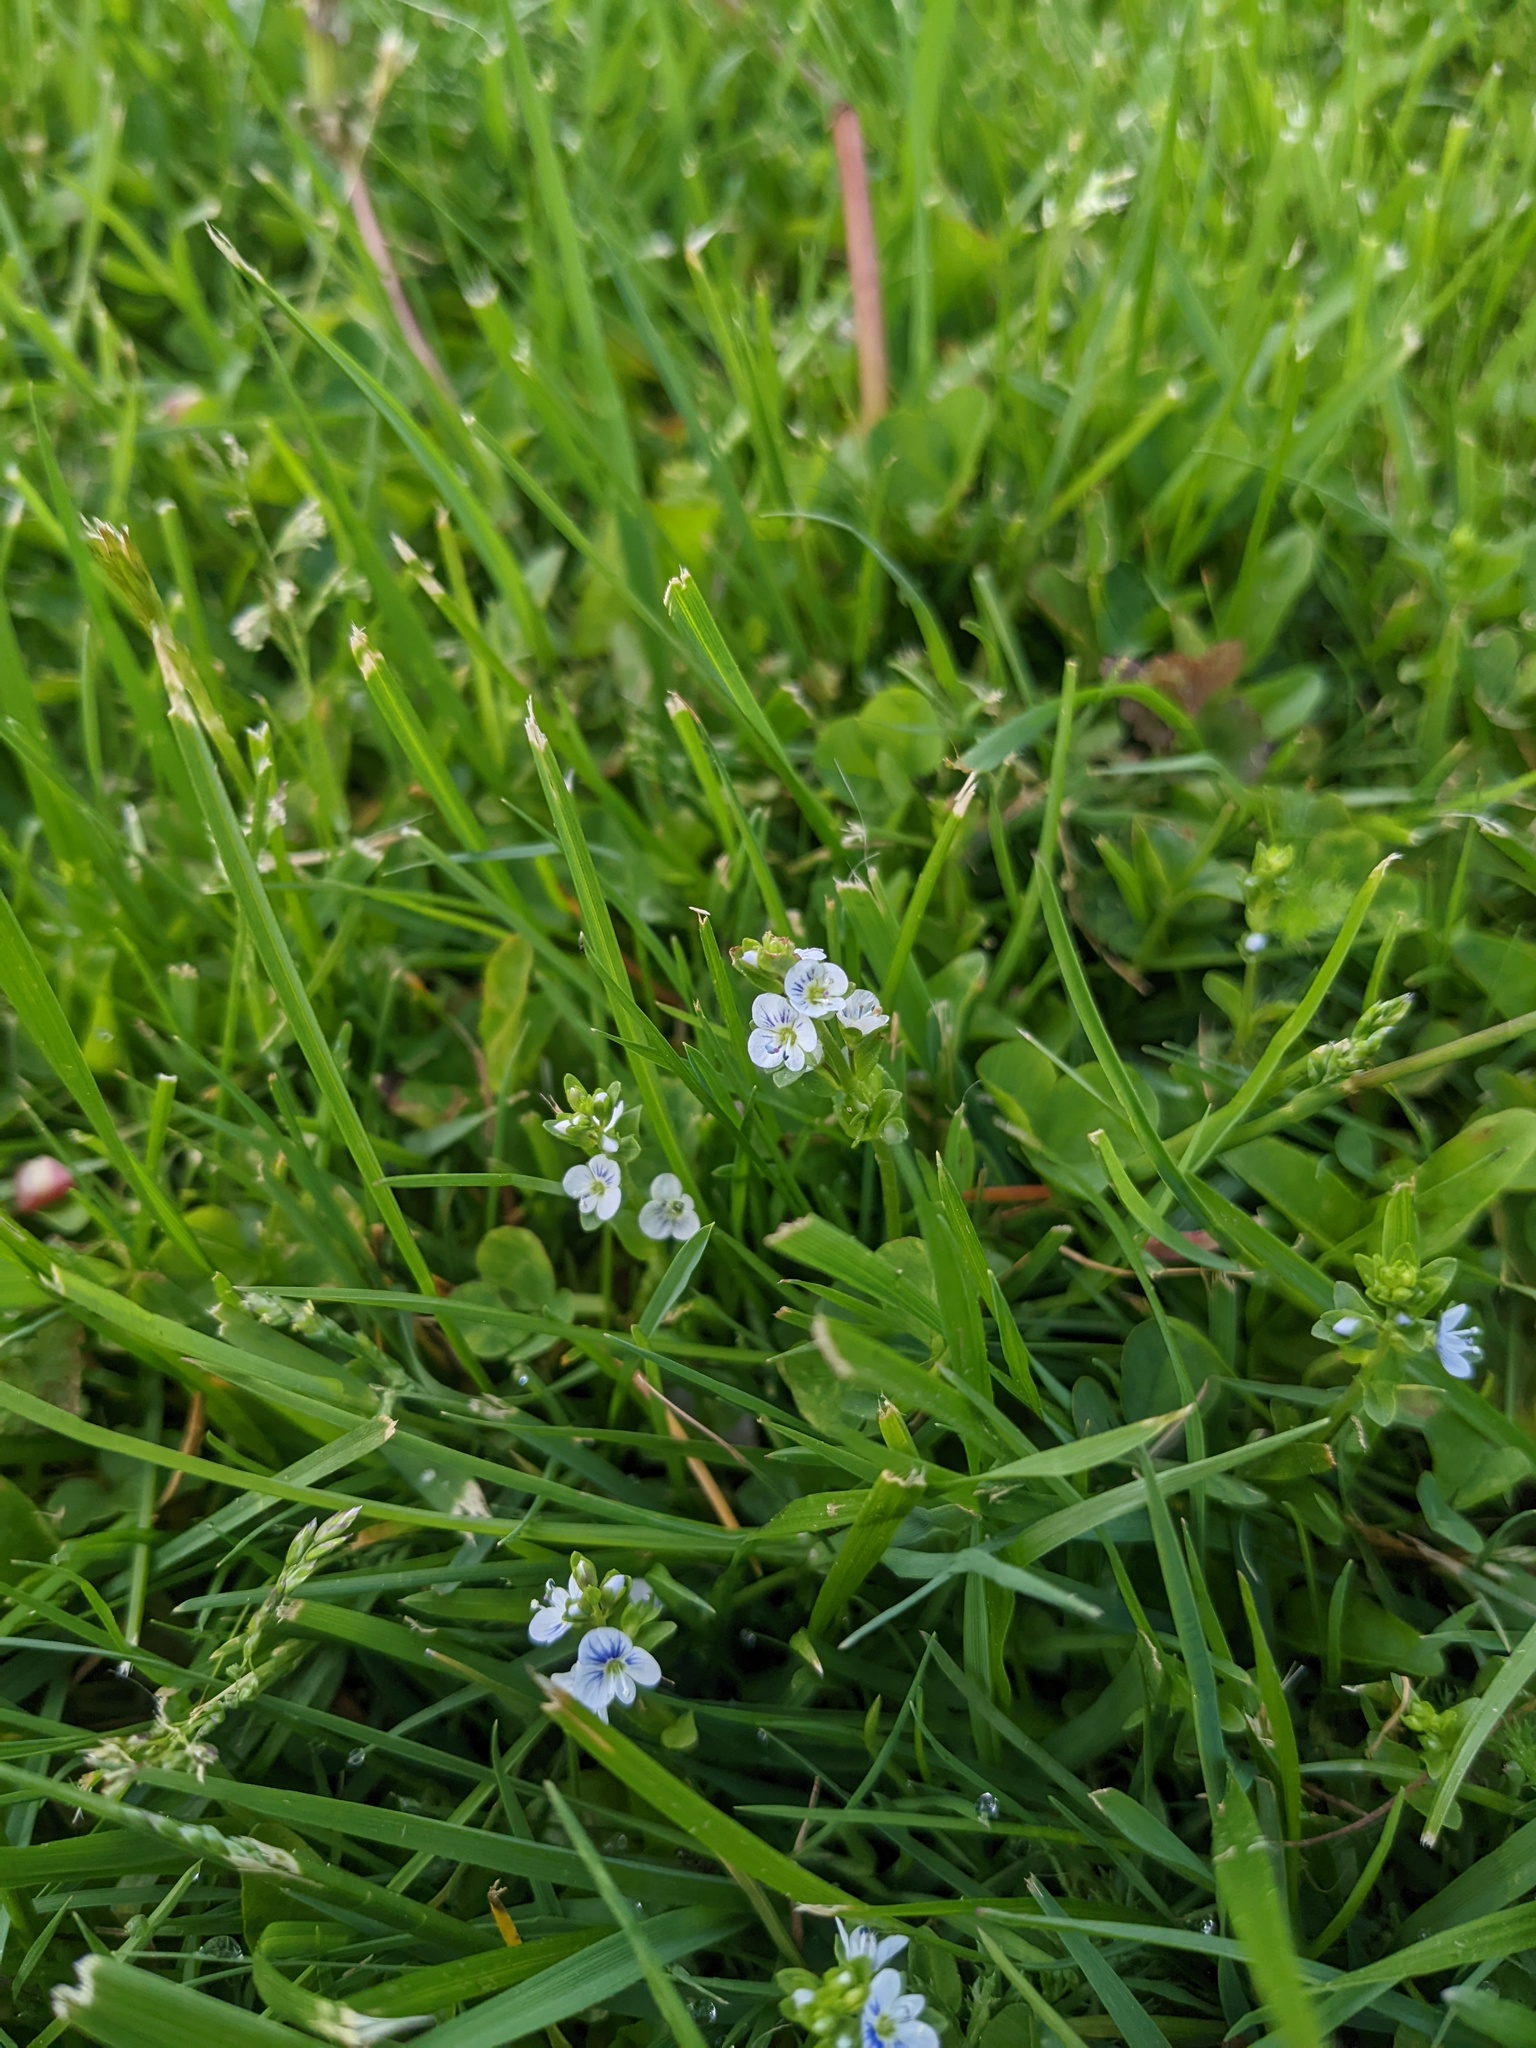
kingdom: Plantae
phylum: Tracheophyta
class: Magnoliopsida
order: Lamiales
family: Plantaginaceae
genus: Veronica
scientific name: Veronica serpyllifolia
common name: Thyme-leaved speedwell
